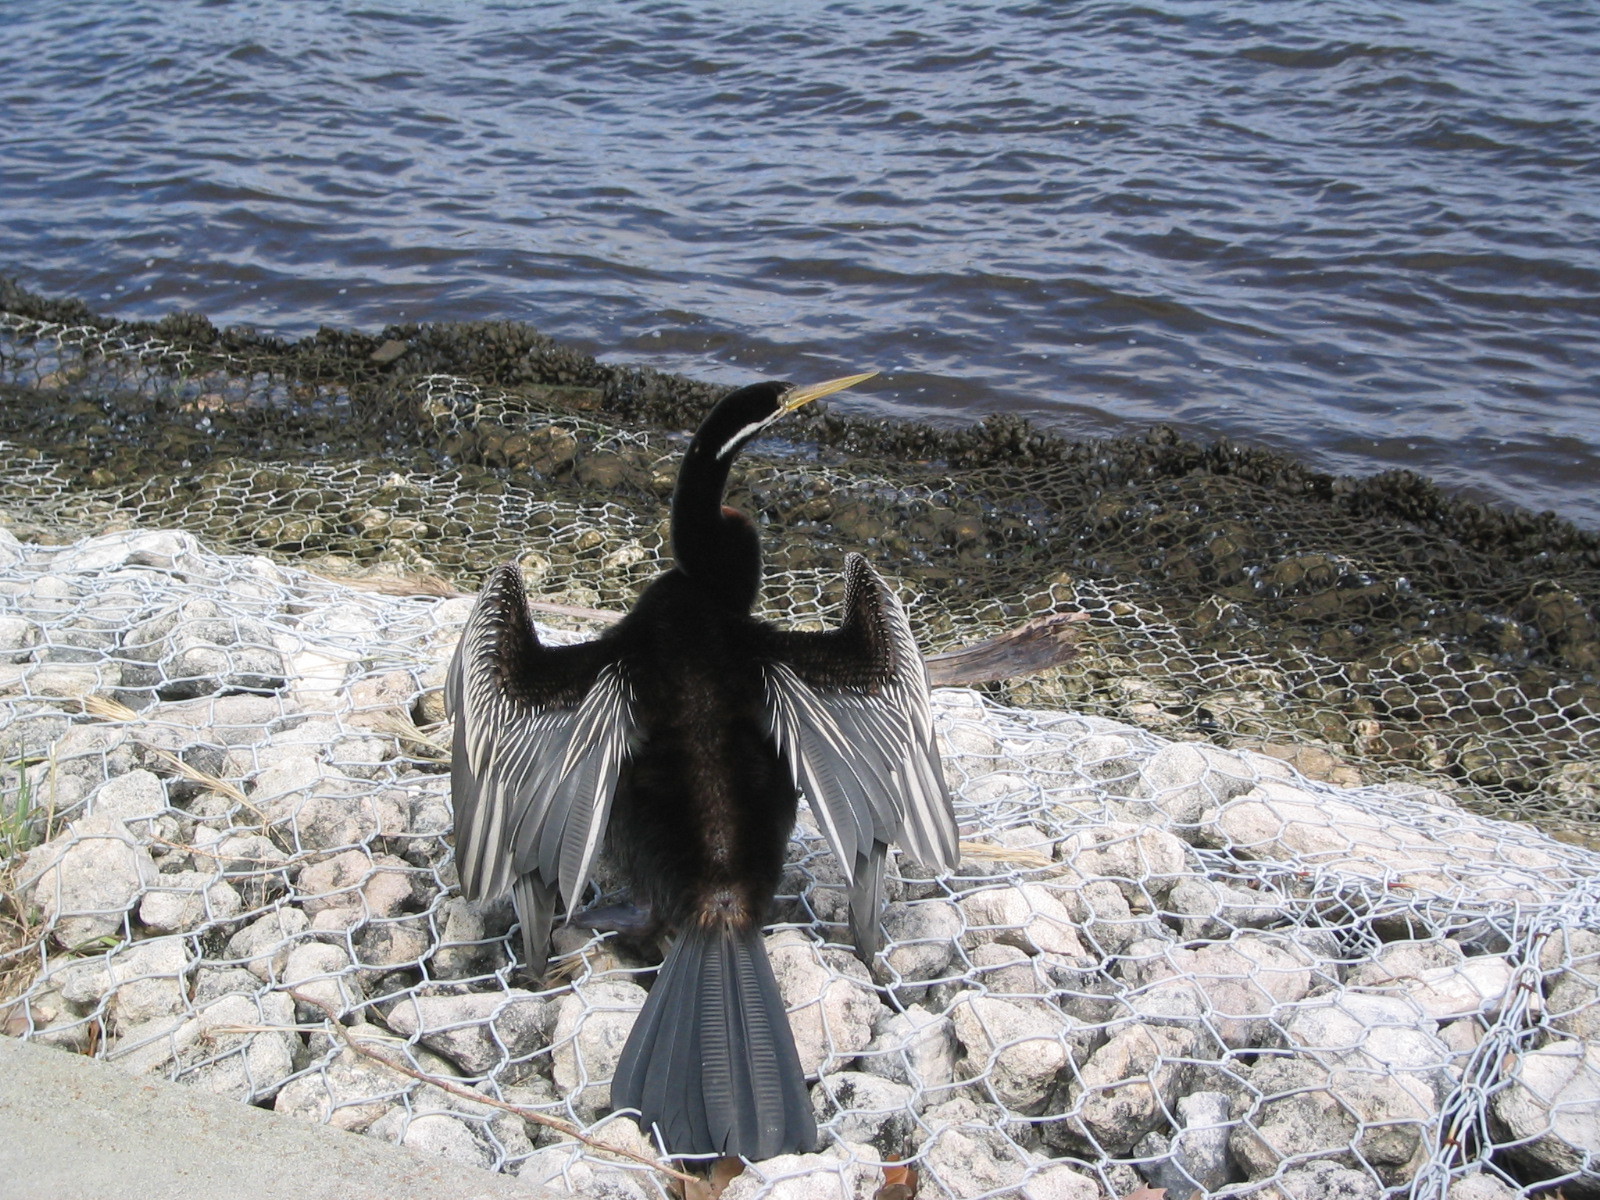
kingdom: Animalia
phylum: Chordata
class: Aves
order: Suliformes
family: Anhingidae
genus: Anhinga
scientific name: Anhinga novaehollandiae
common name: Australasian darter
